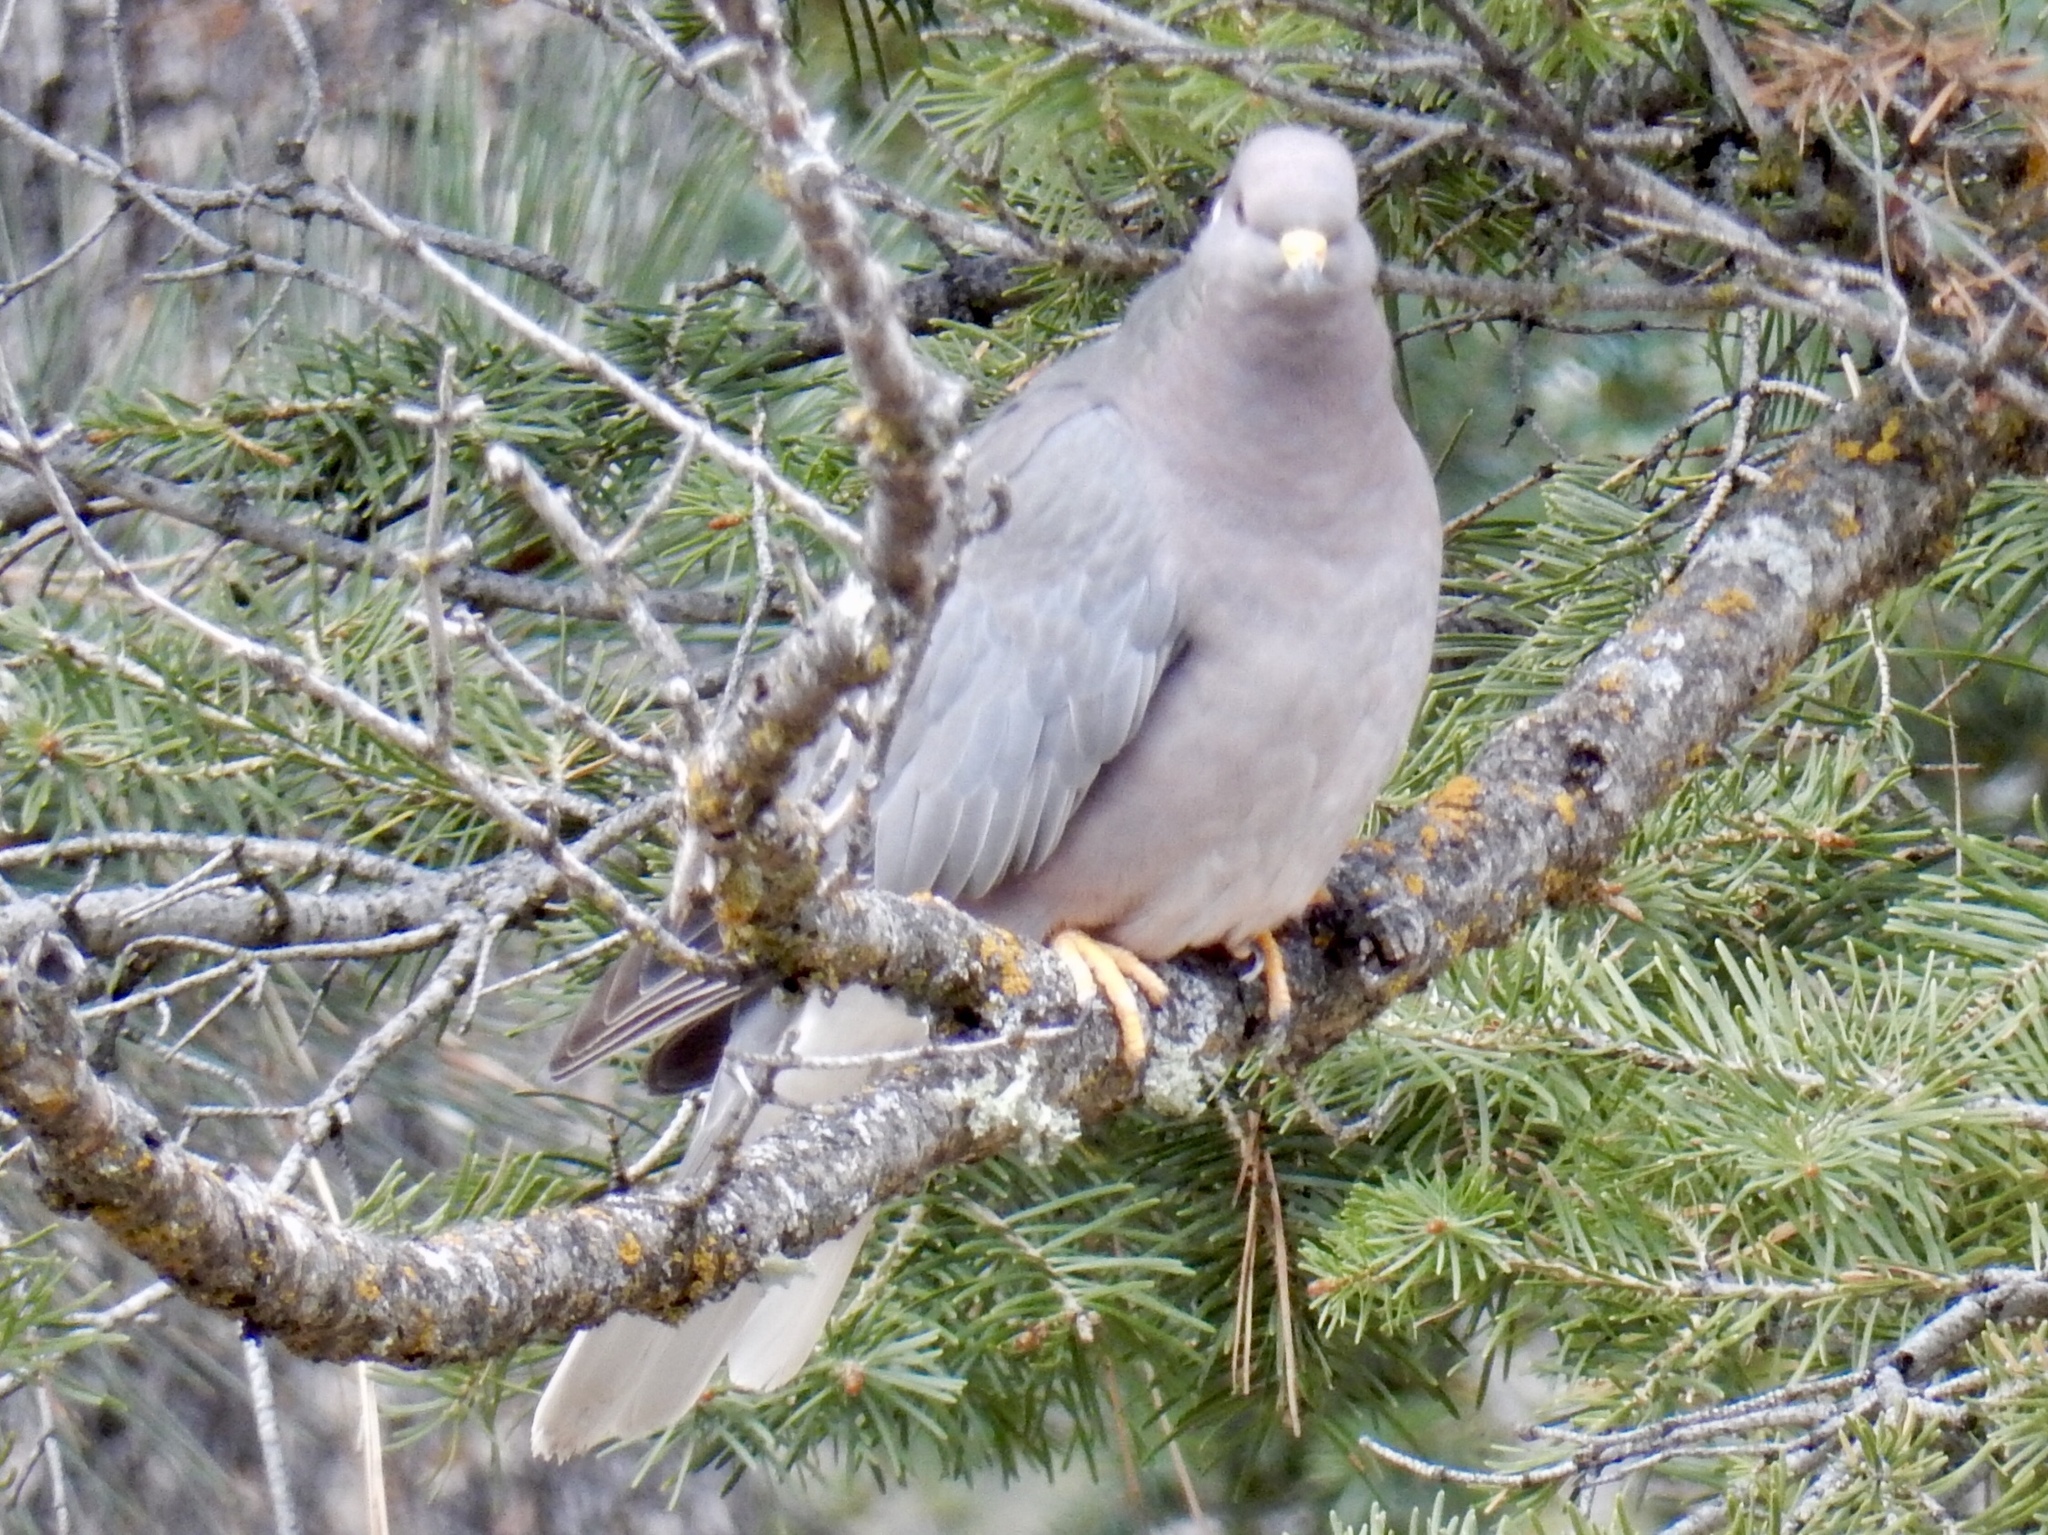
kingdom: Animalia
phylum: Chordata
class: Aves
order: Columbiformes
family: Columbidae
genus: Patagioenas
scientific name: Patagioenas fasciata
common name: Band-tailed pigeon
